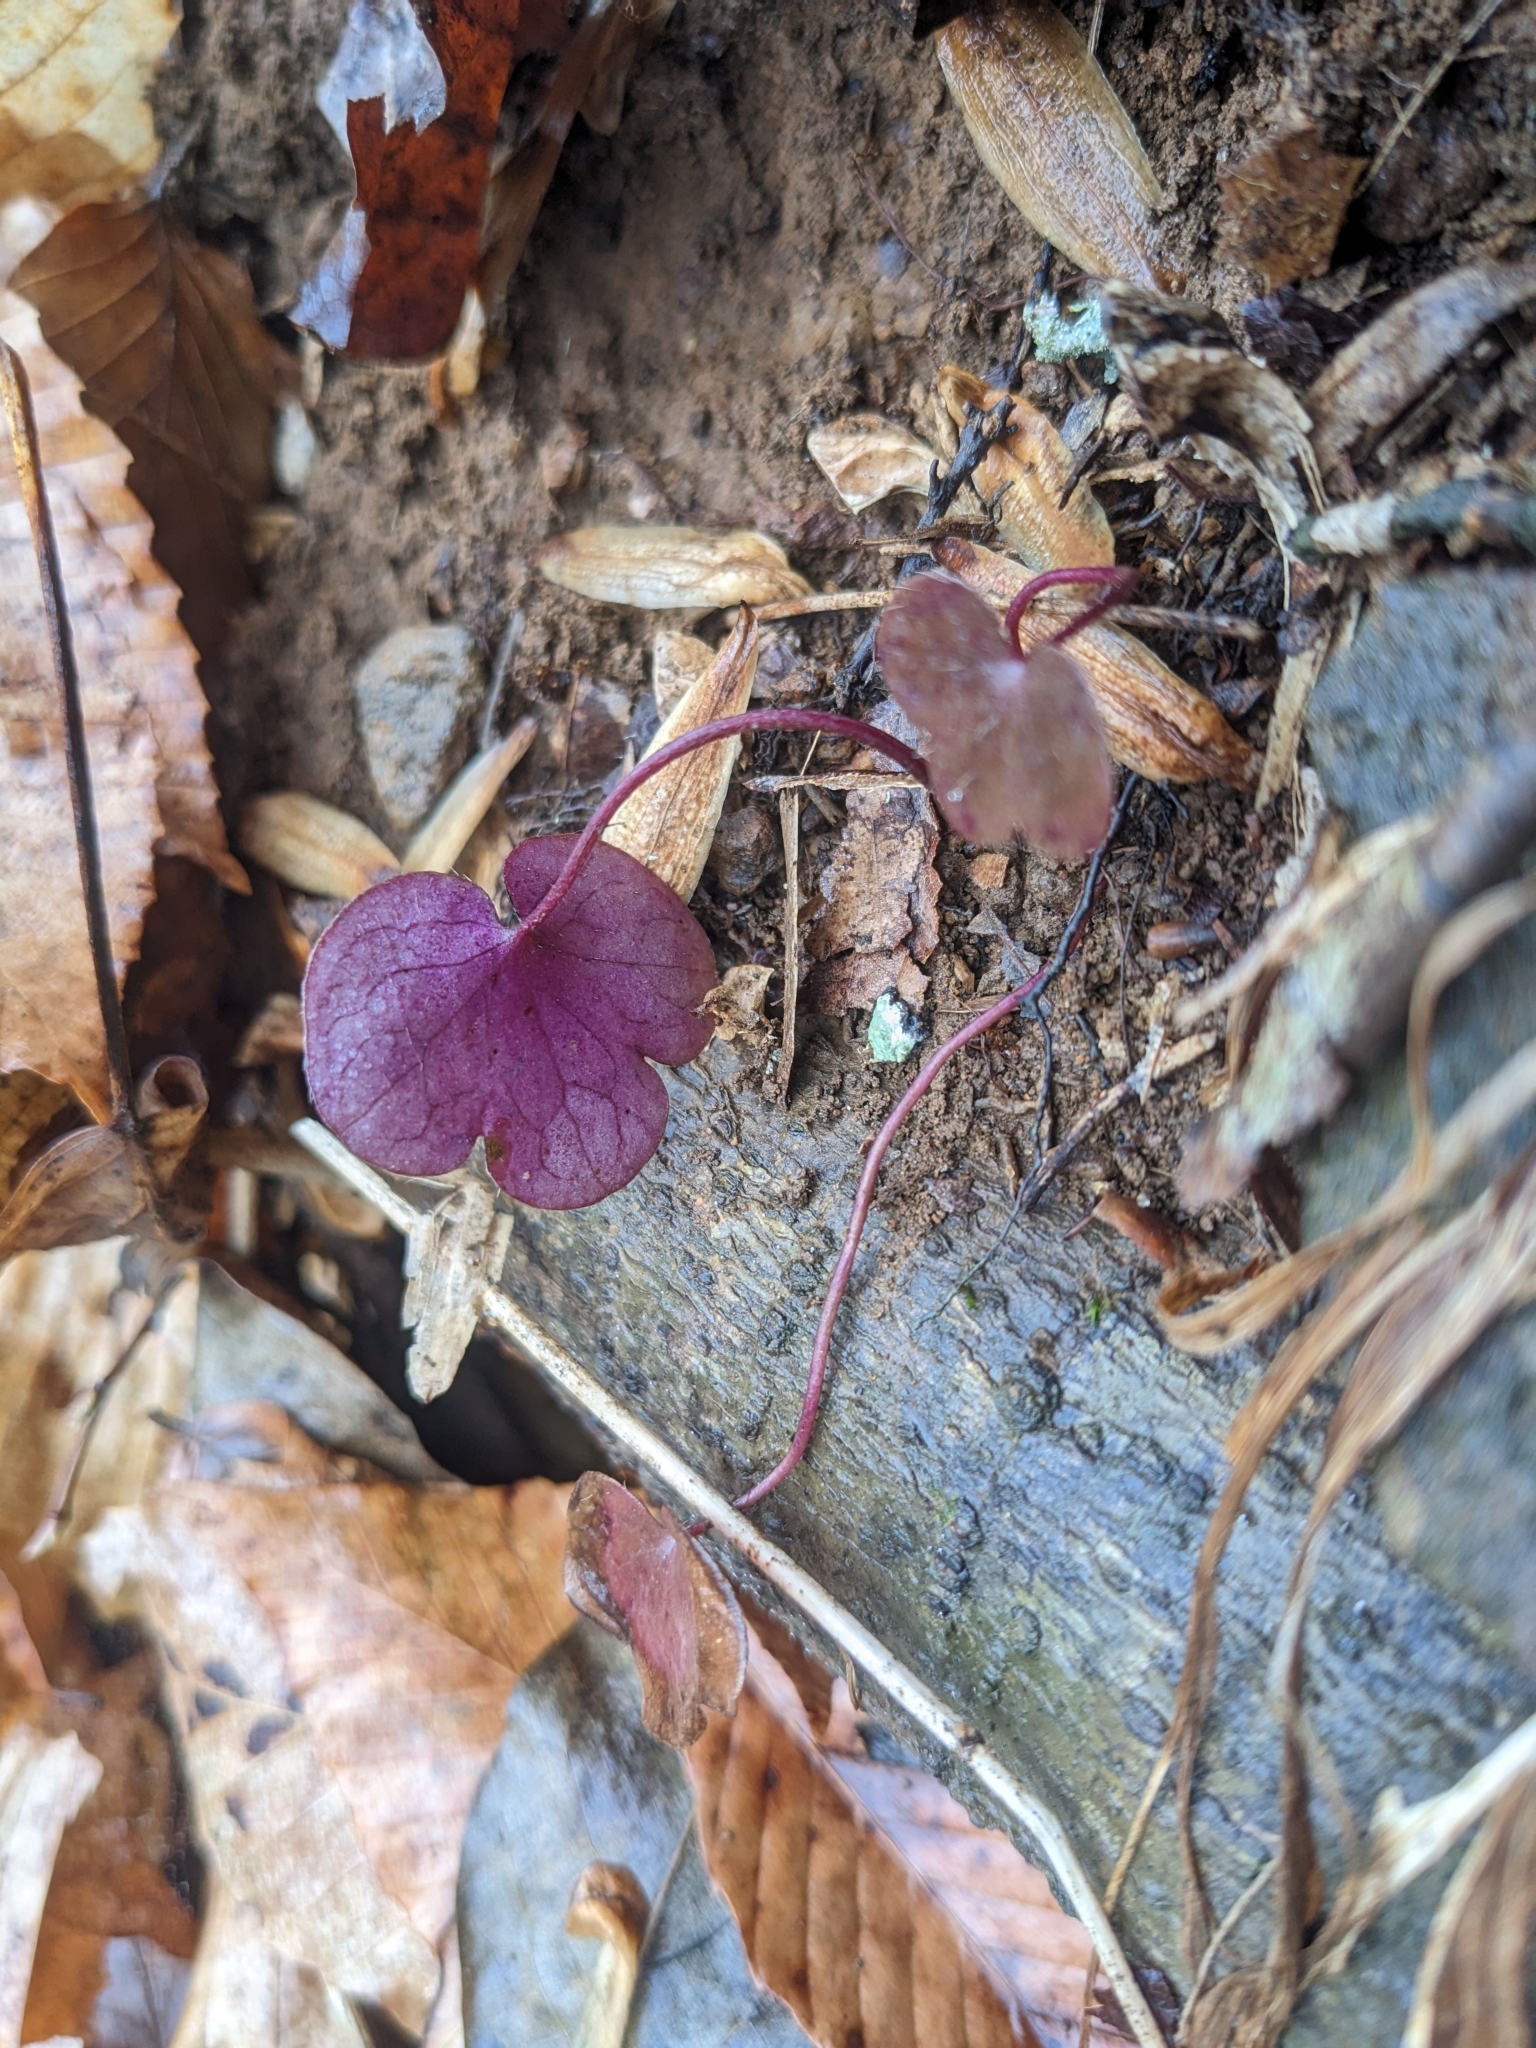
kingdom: Plantae
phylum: Tracheophyta
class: Magnoliopsida
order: Ranunculales
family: Ranunculaceae
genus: Hepatica
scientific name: Hepatica americana
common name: American hepatica
